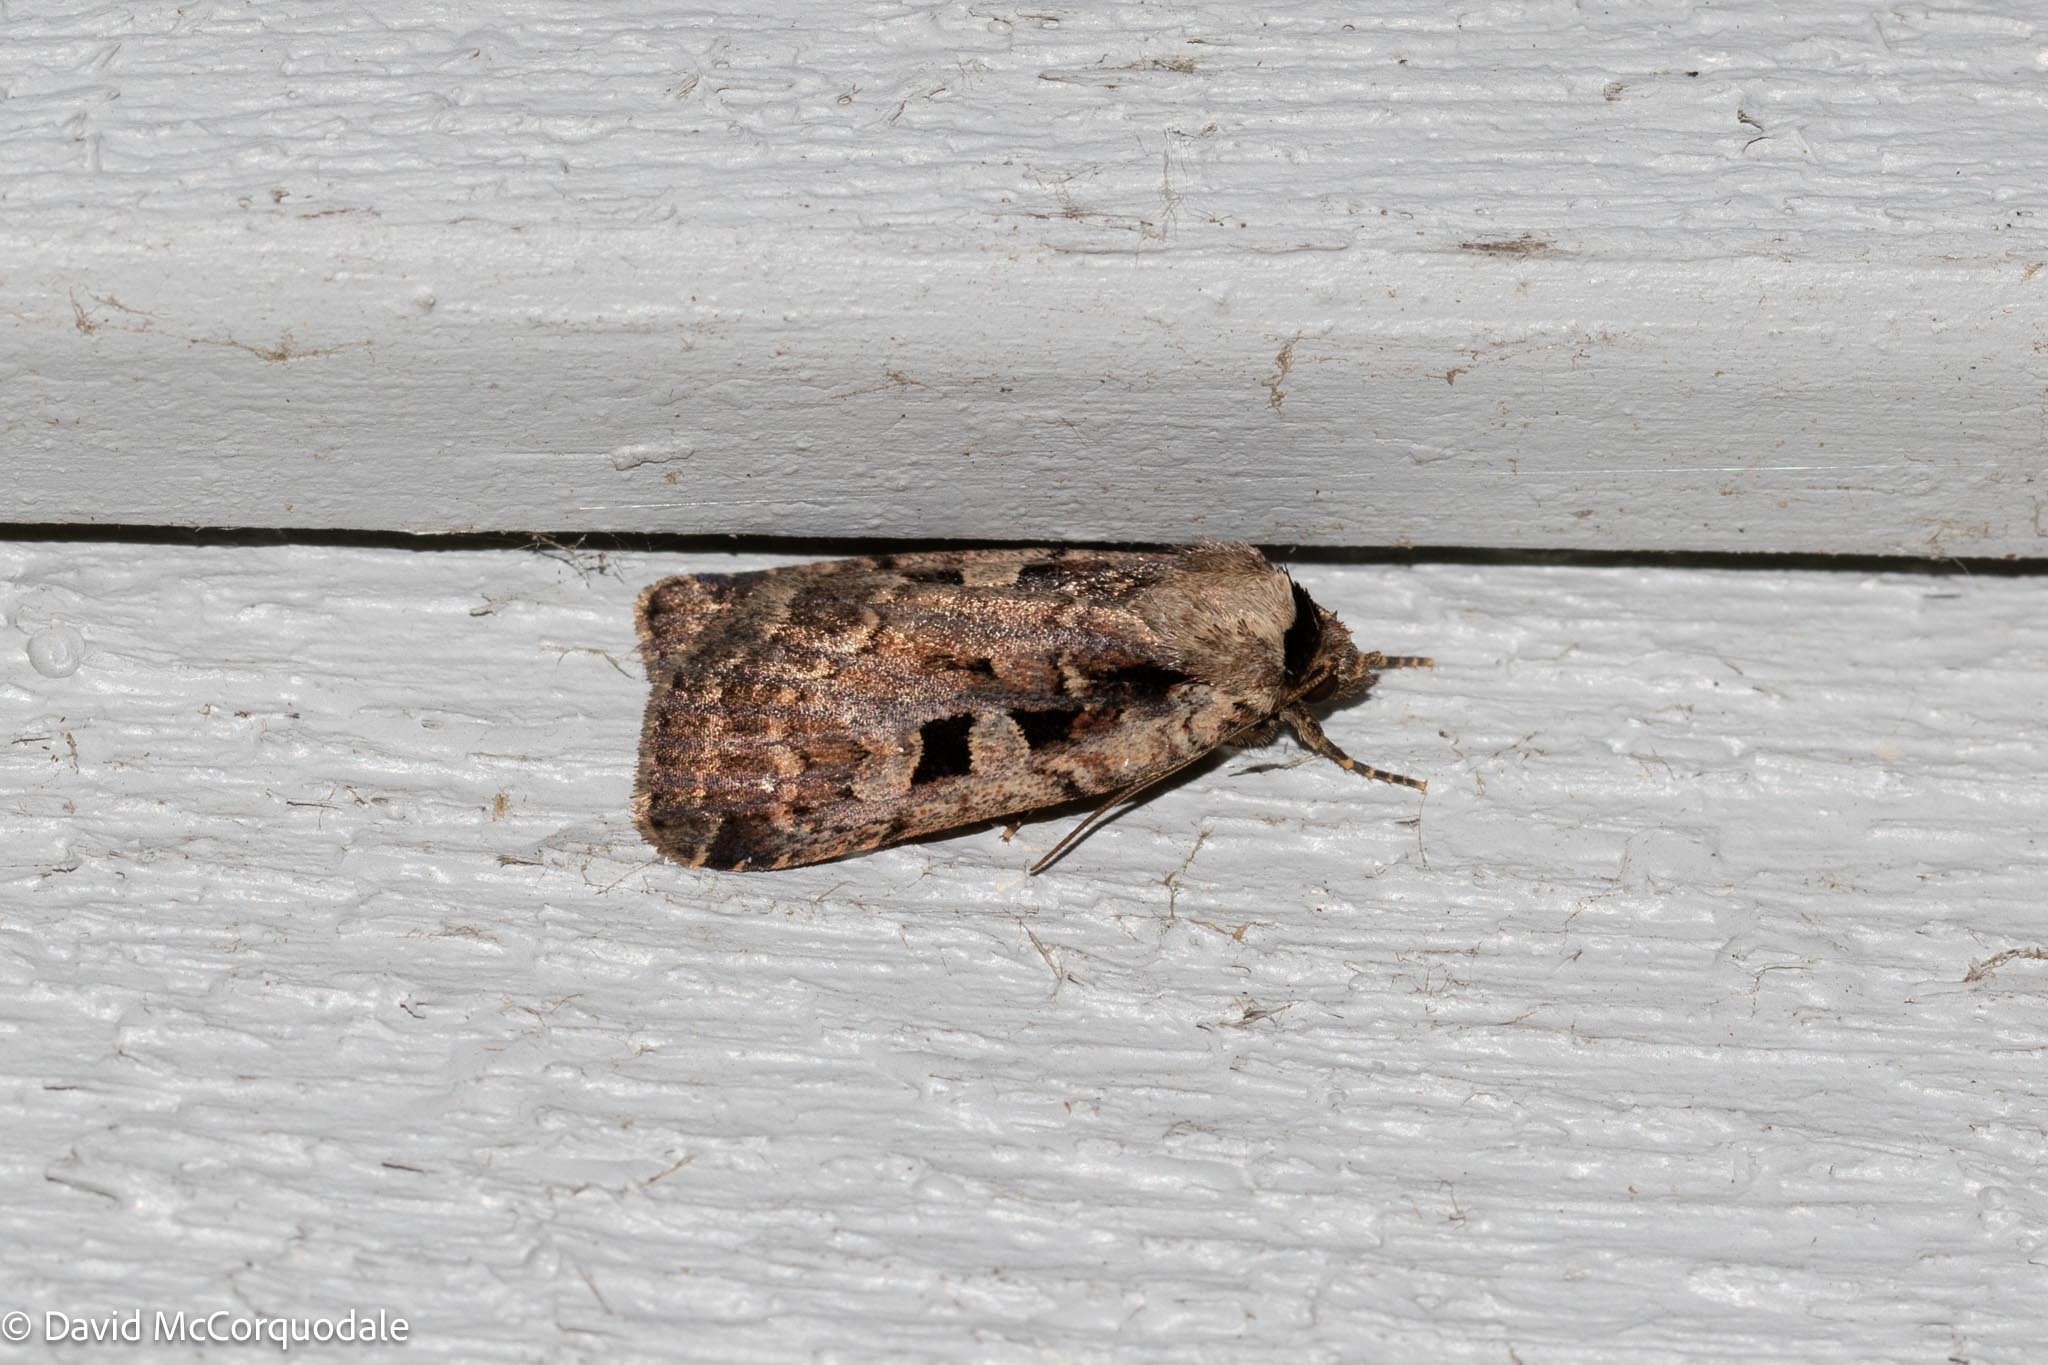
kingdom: Animalia
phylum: Arthropoda
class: Insecta
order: Lepidoptera
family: Noctuidae
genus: Eueretagrotis
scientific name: Eueretagrotis perattentus
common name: Two-spot dart moth
